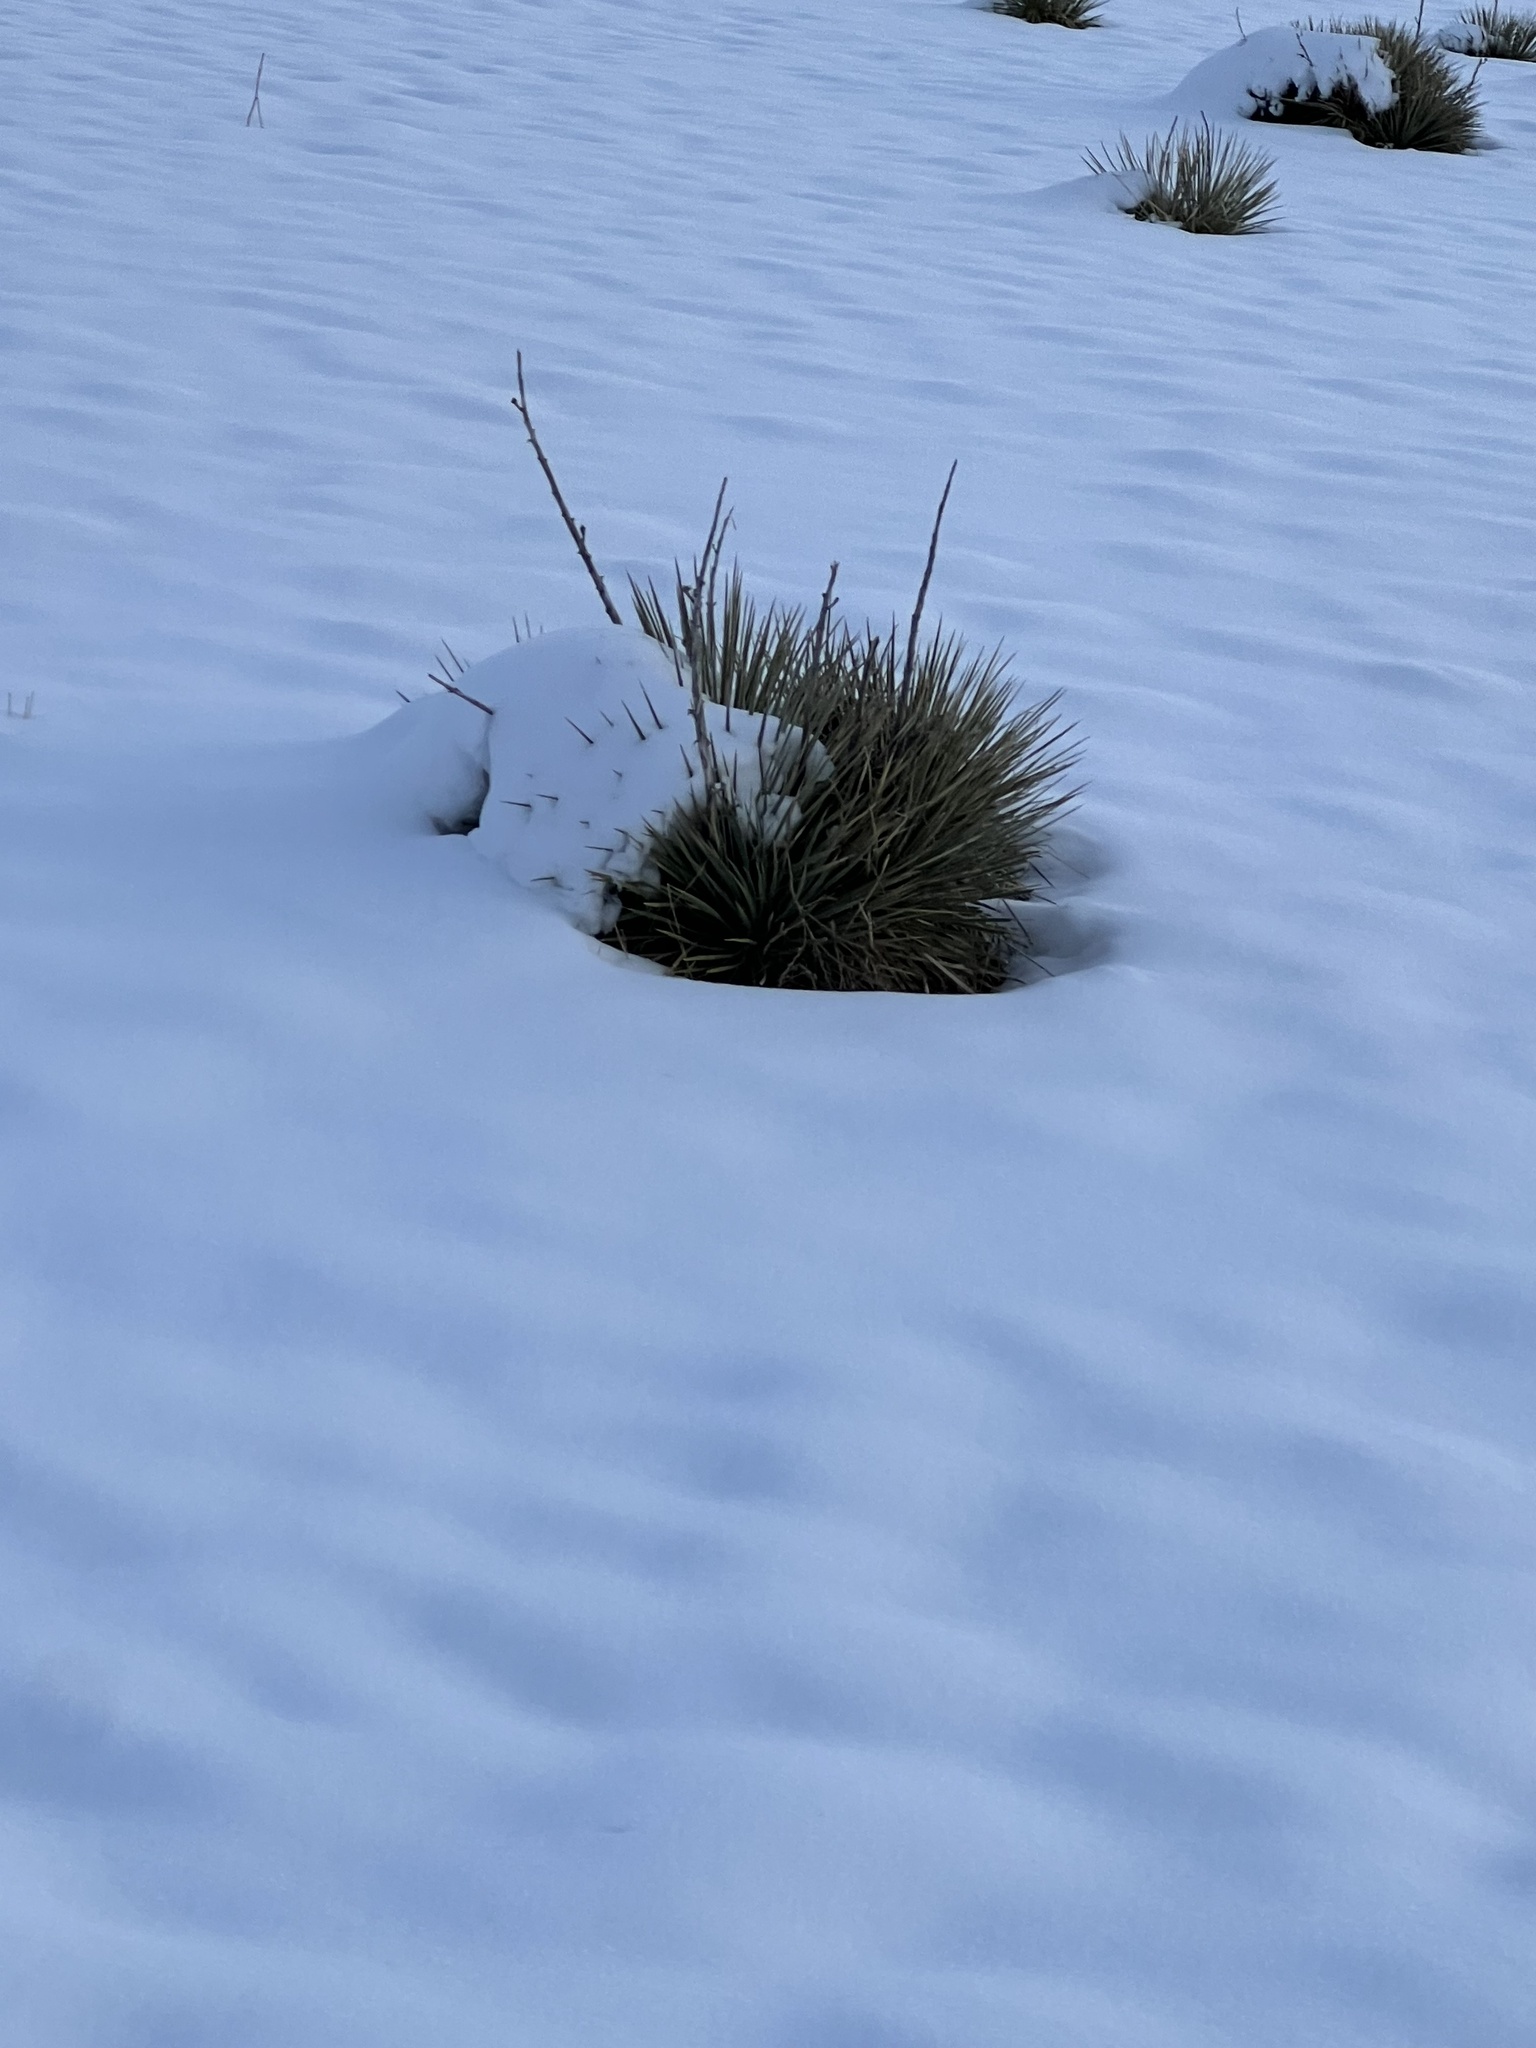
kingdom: Plantae
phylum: Tracheophyta
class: Liliopsida
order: Asparagales
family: Asparagaceae
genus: Yucca
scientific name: Yucca glauca
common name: Great plains yucca
